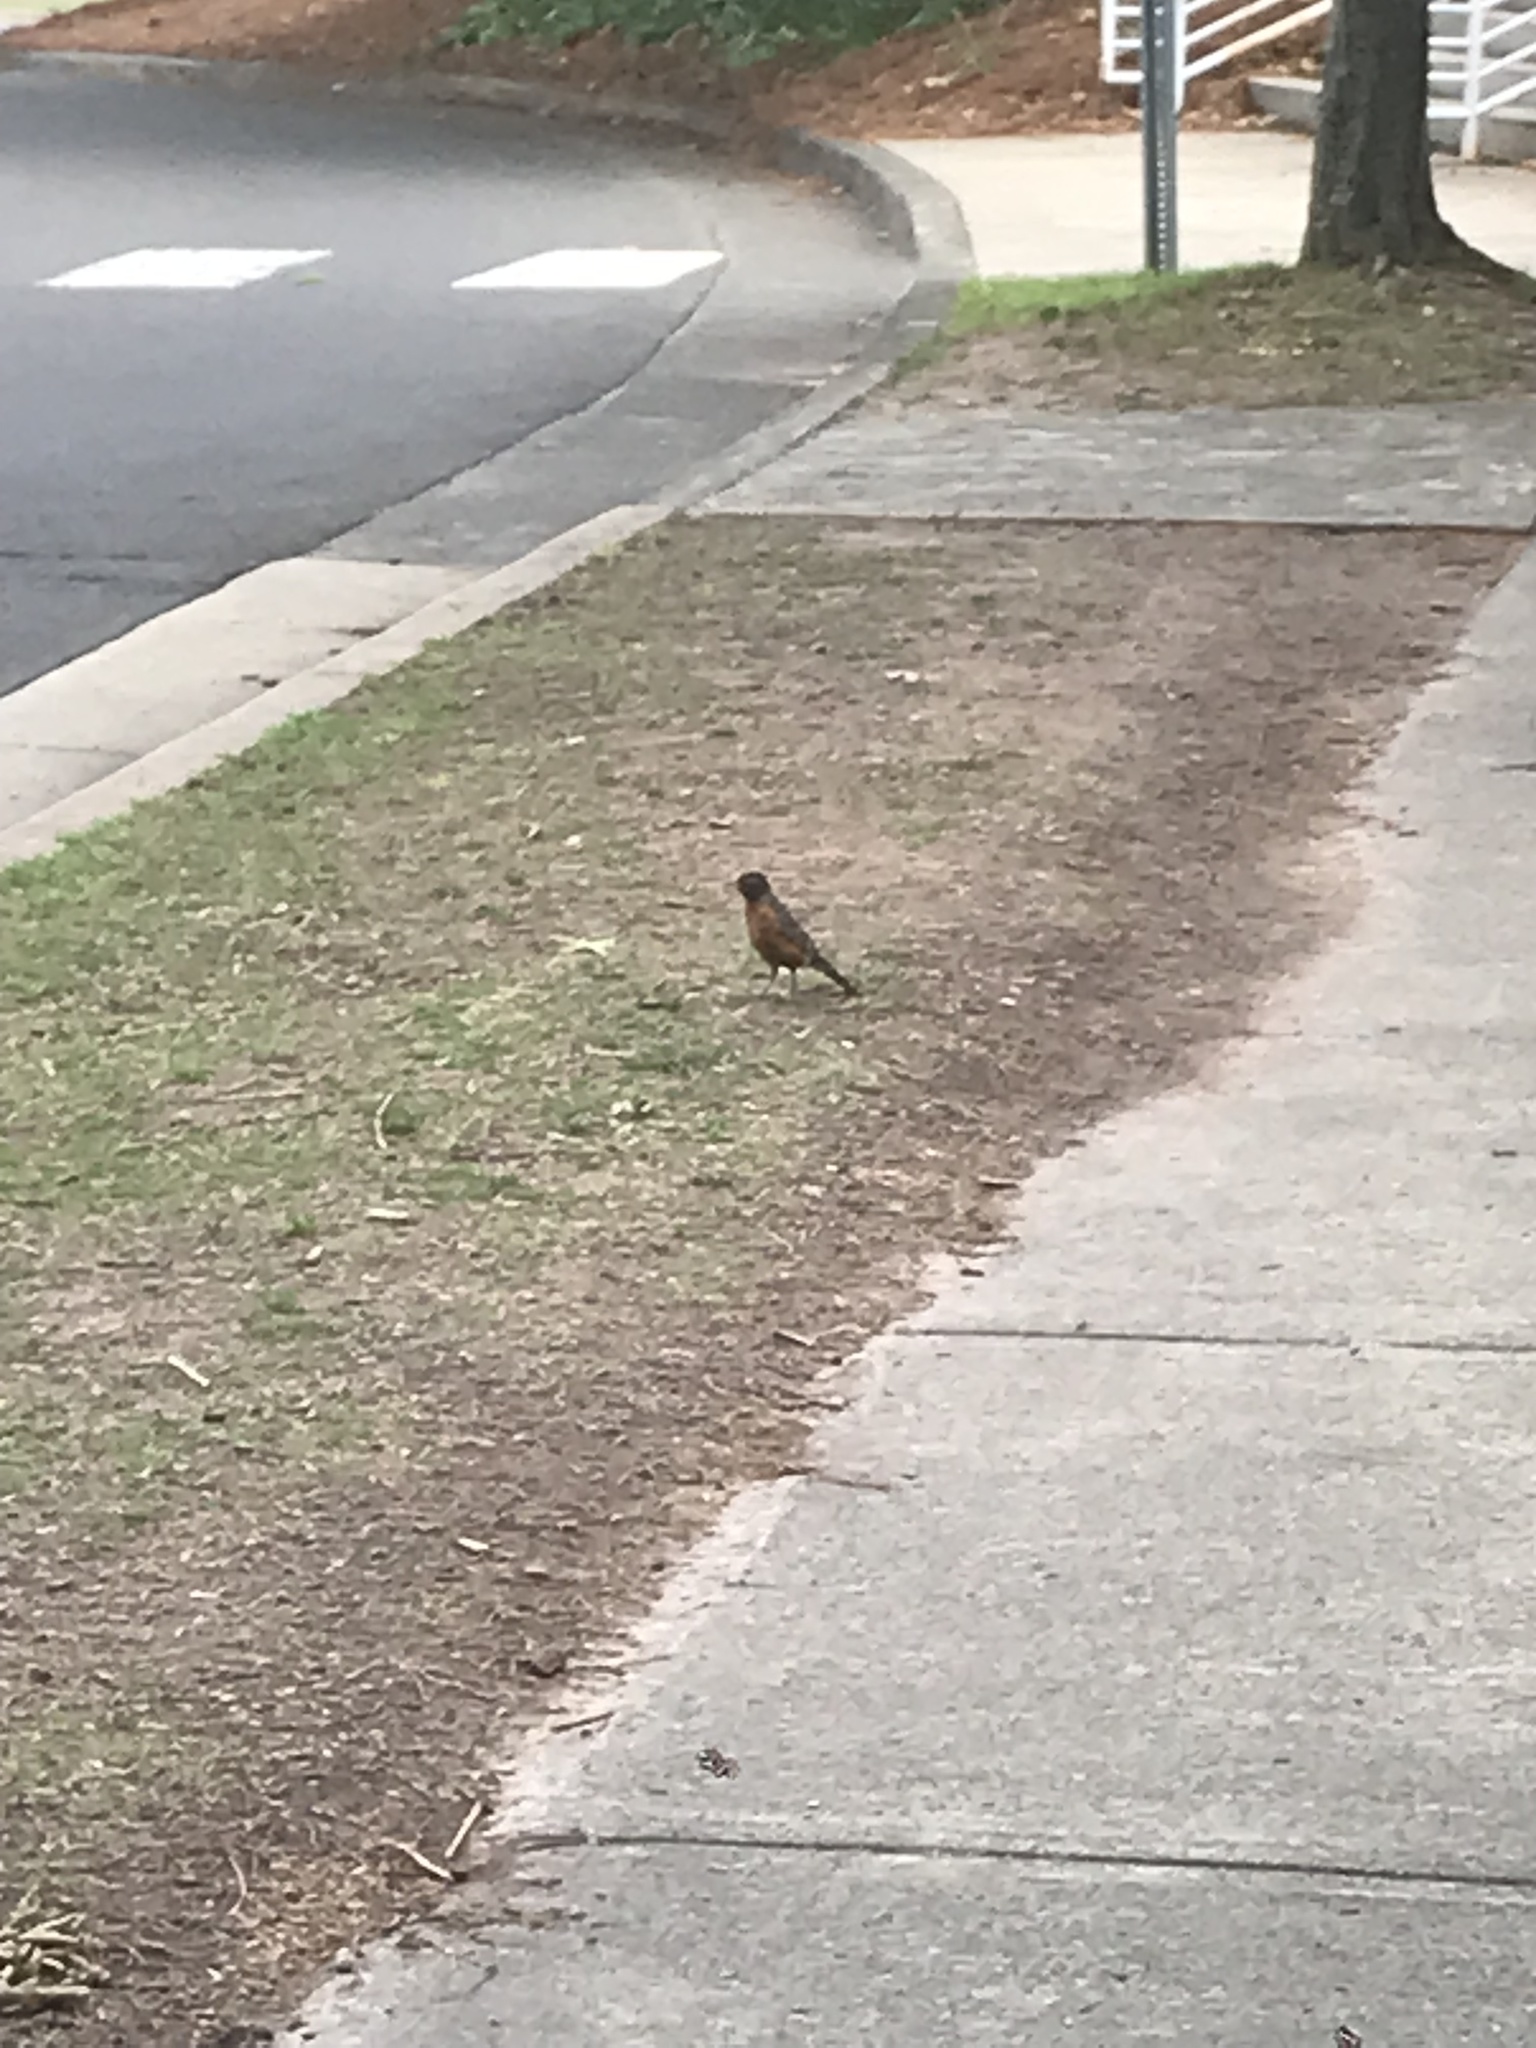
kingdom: Animalia
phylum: Chordata
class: Aves
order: Passeriformes
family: Turdidae
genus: Turdus
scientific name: Turdus migratorius
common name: American robin
